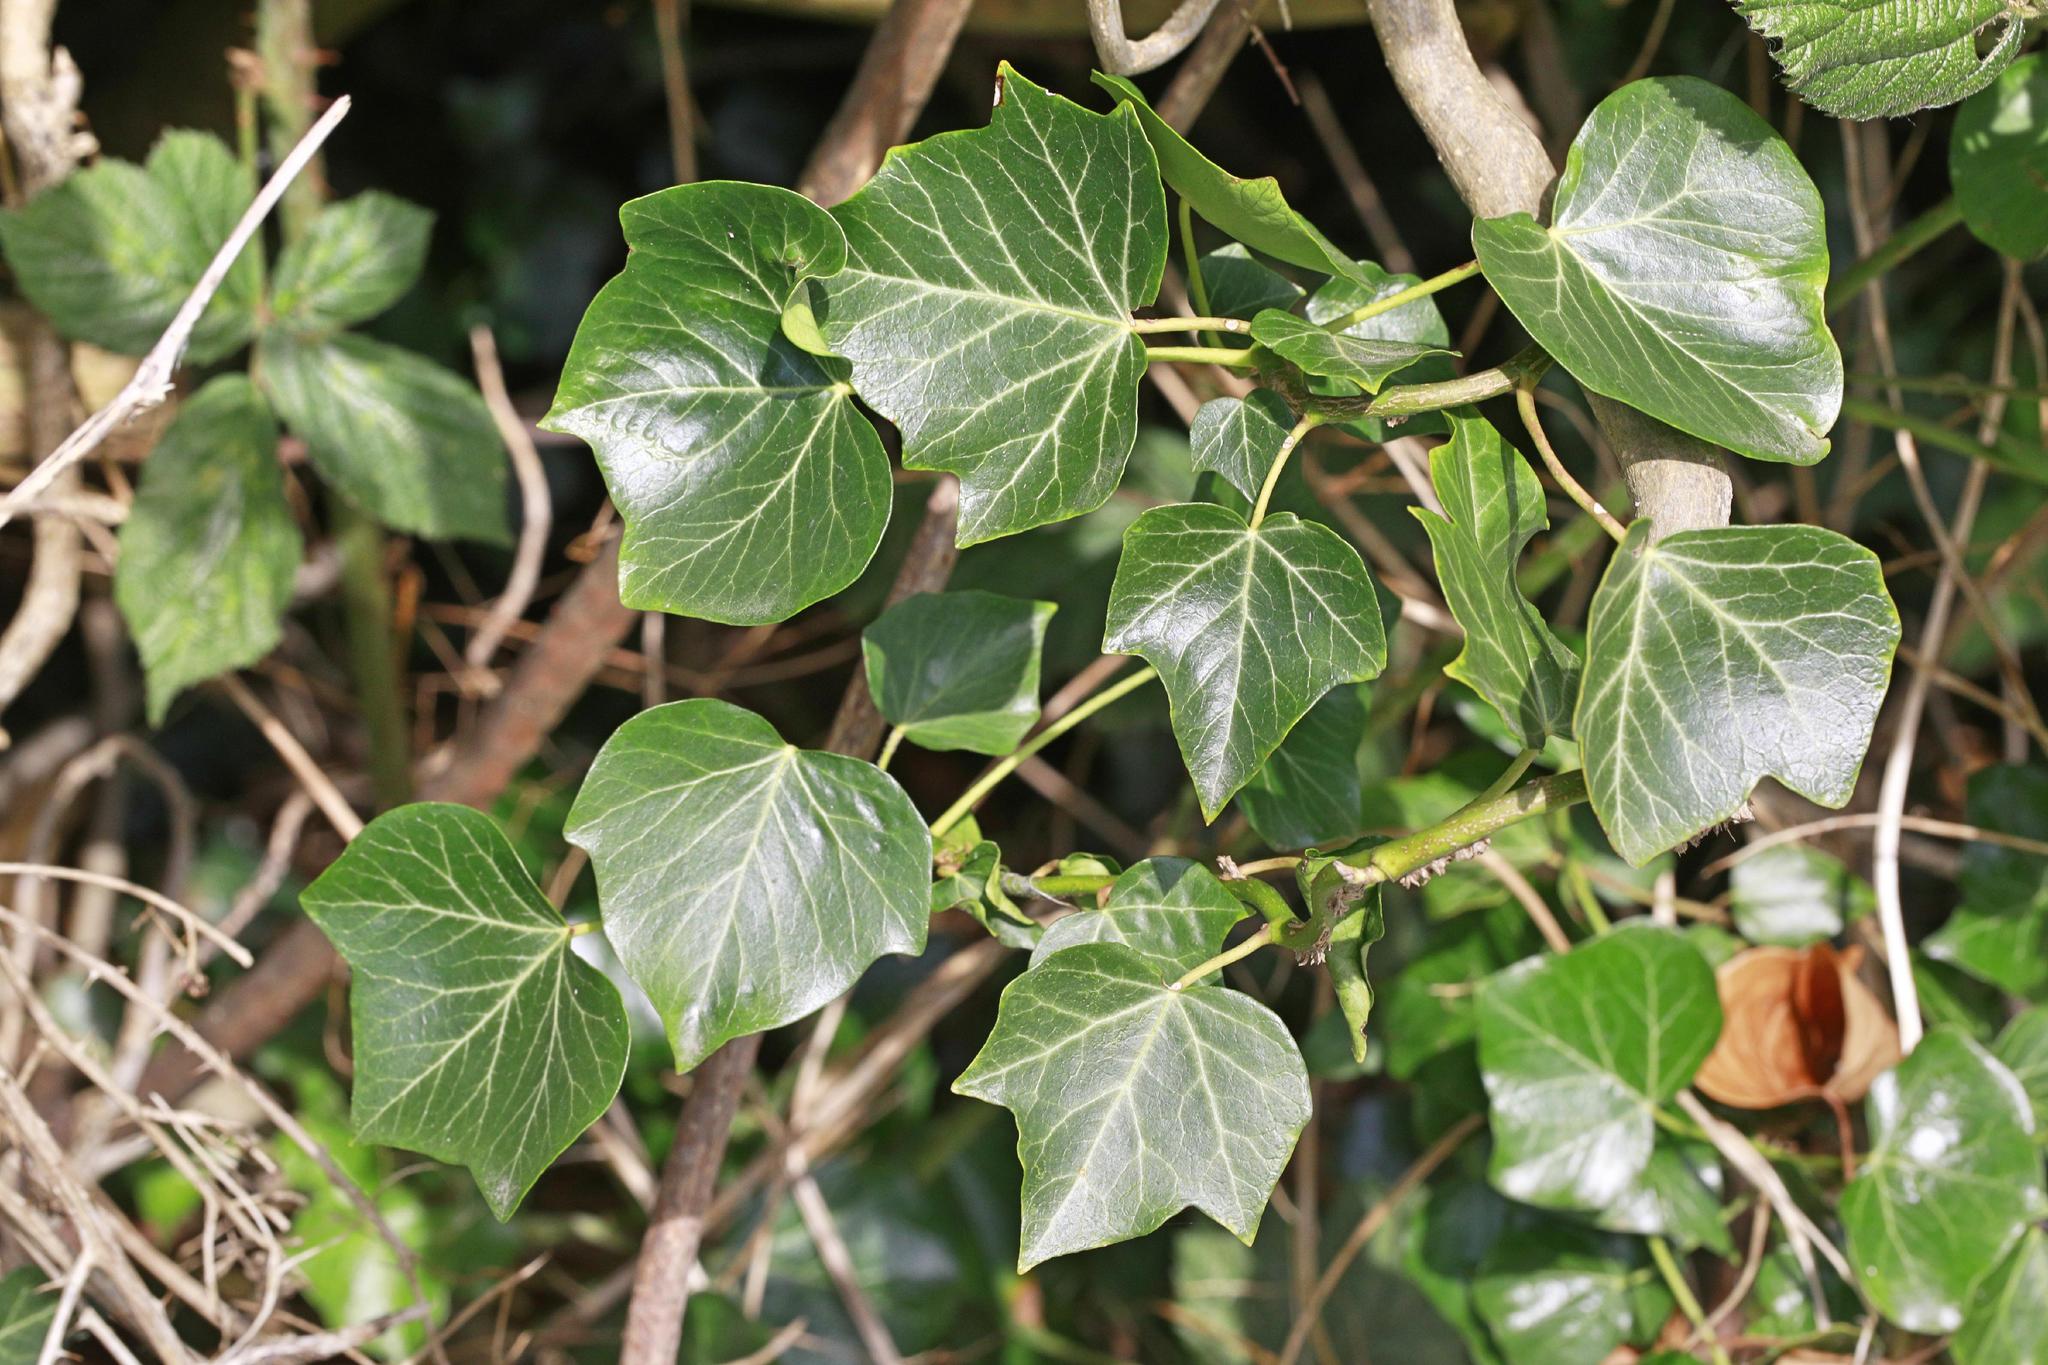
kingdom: Plantae
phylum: Tracheophyta
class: Magnoliopsida
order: Apiales
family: Araliaceae
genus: Hedera
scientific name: Hedera helix
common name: Ivy
